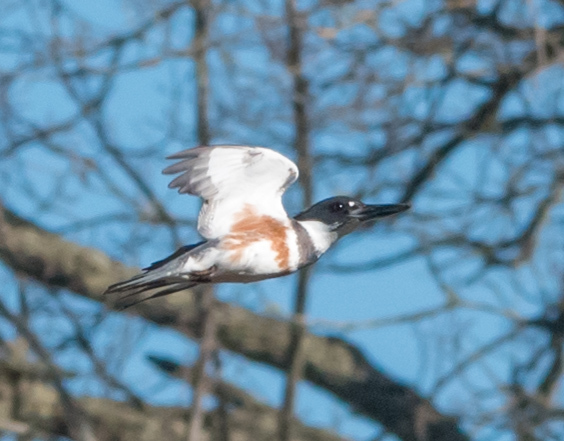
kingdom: Animalia
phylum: Chordata
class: Aves
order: Coraciiformes
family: Alcedinidae
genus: Megaceryle
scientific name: Megaceryle alcyon
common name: Belted kingfisher
